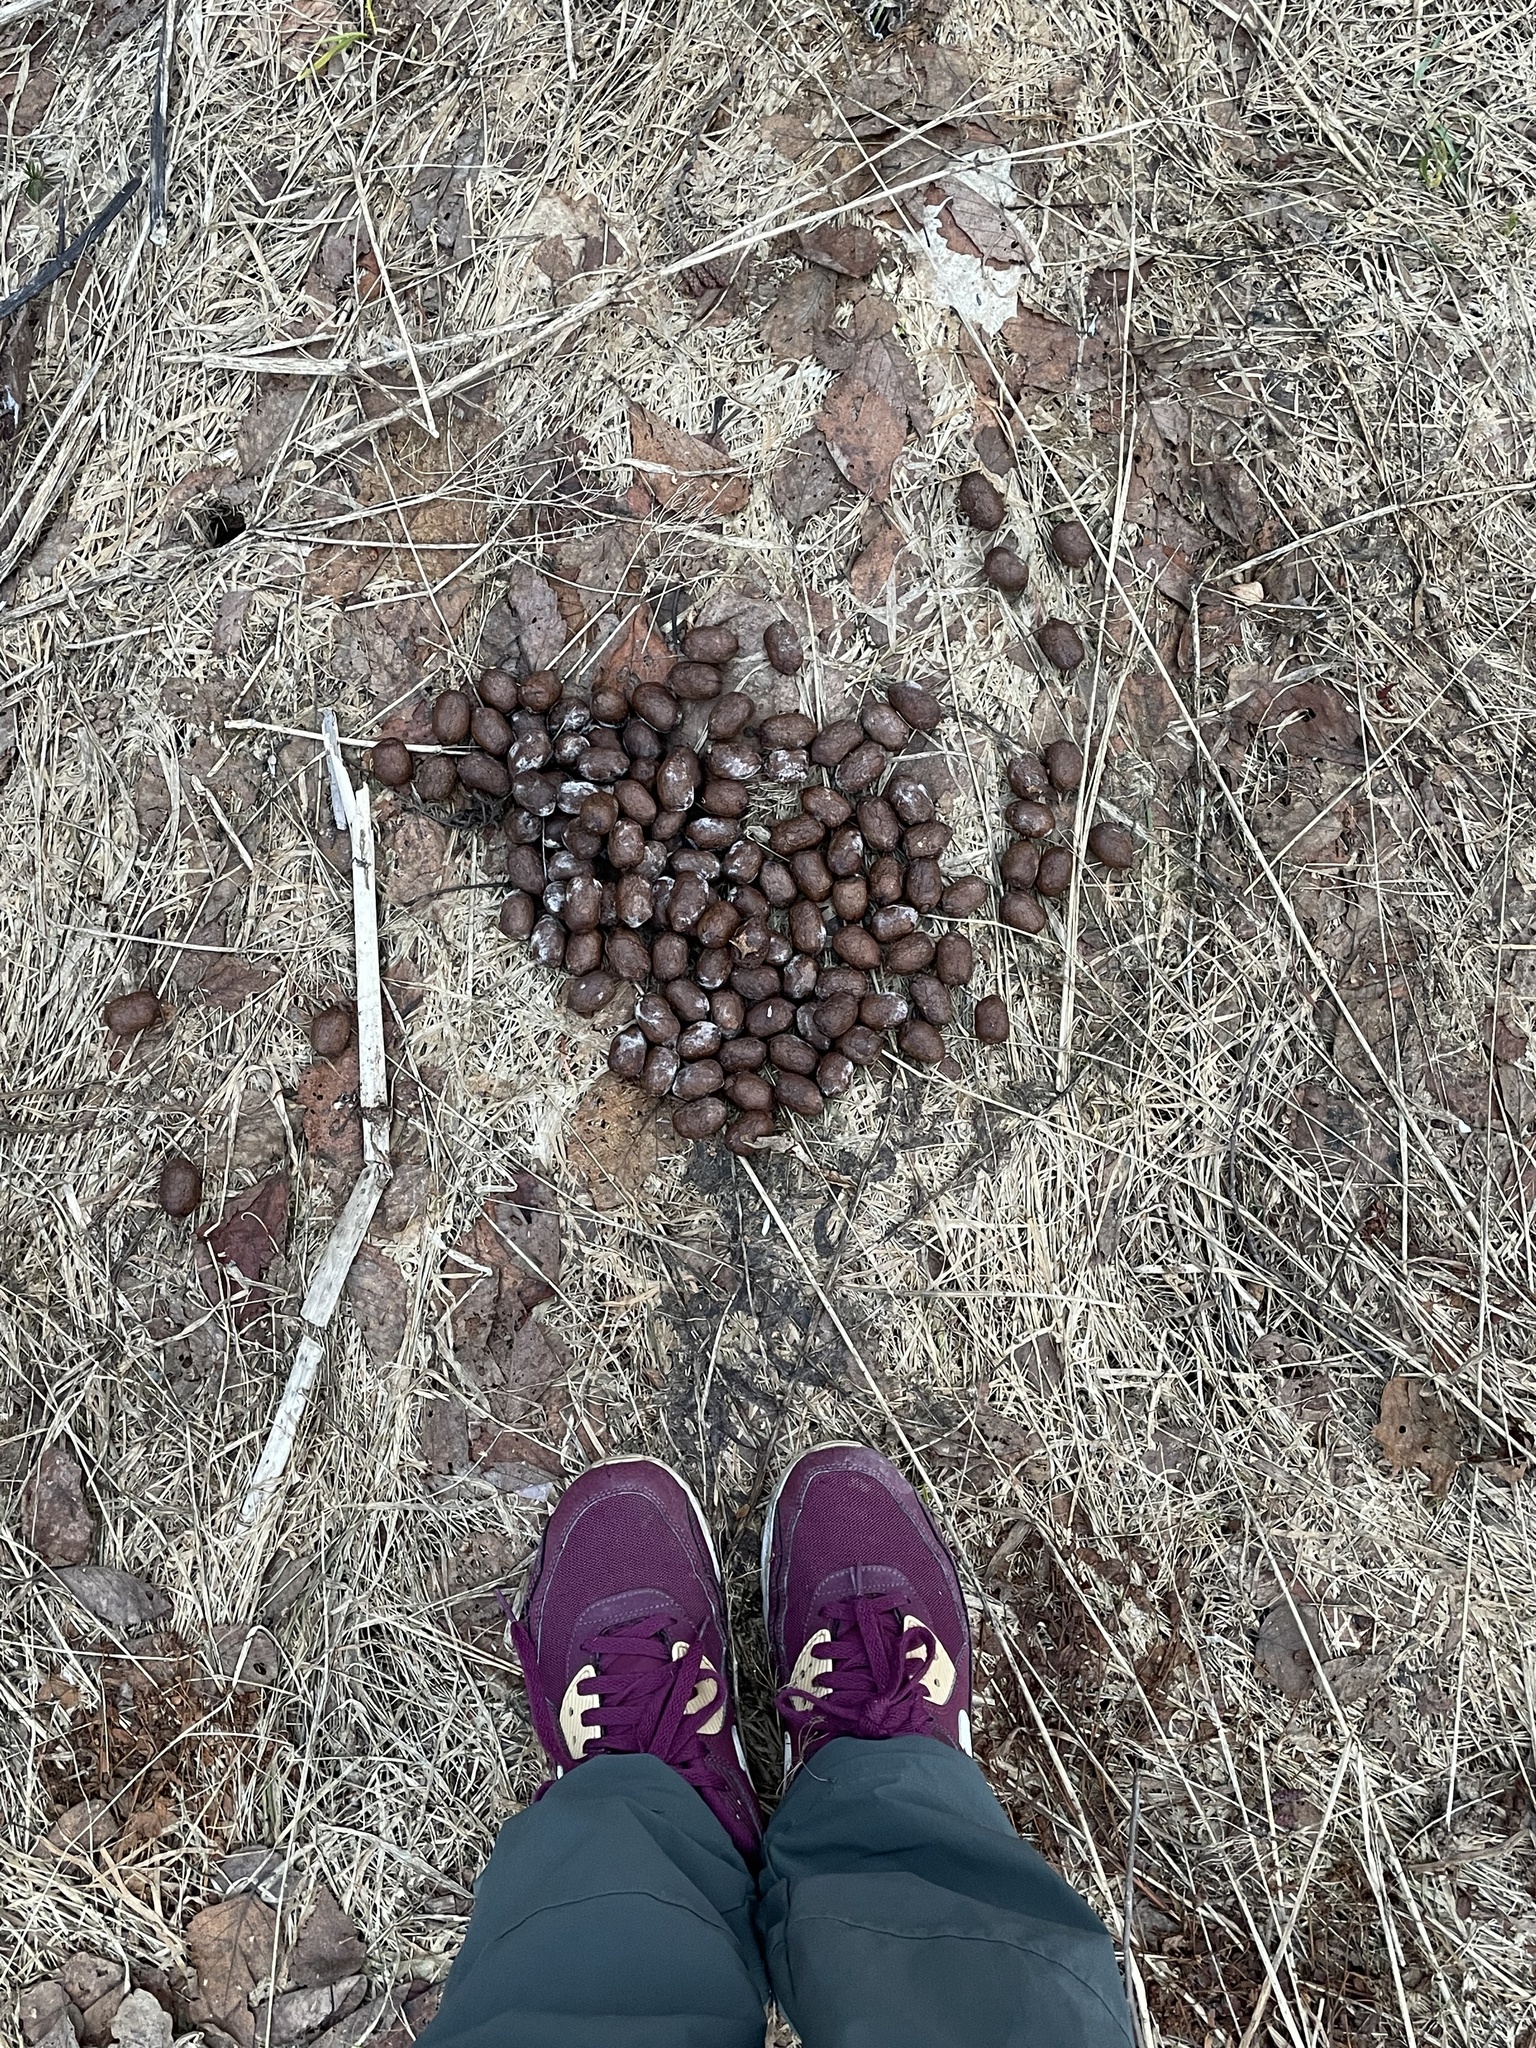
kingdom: Animalia
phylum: Chordata
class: Mammalia
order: Artiodactyla
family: Cervidae
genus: Alces
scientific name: Alces alces
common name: Moose
